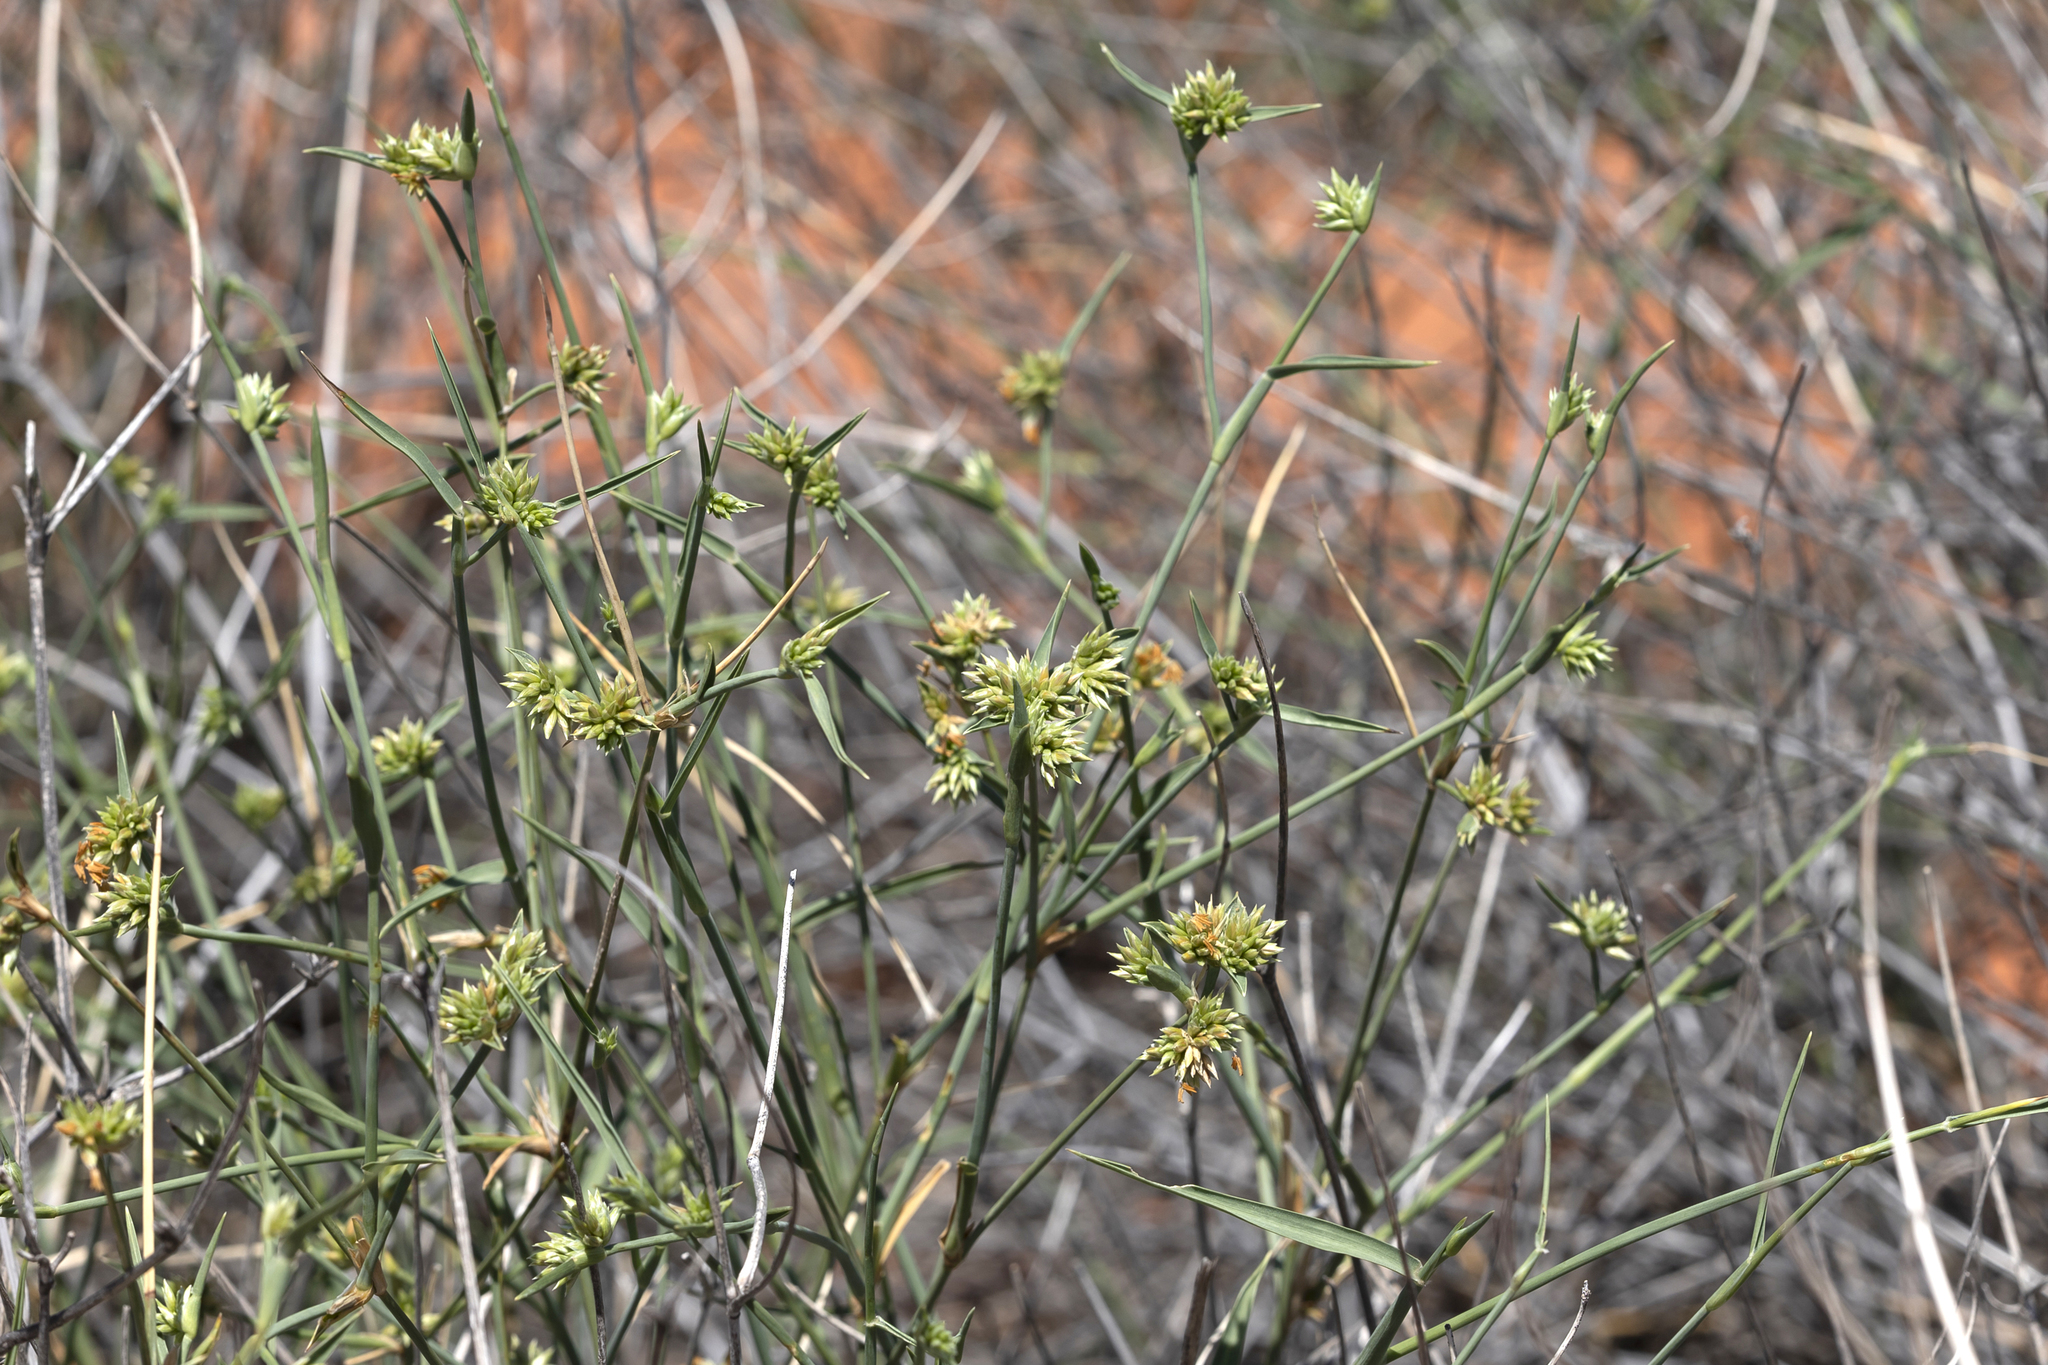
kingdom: Plantae
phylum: Tracheophyta
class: Liliopsida
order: Poales
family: Poaceae
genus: Zygochloa
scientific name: Zygochloa paradoxa
